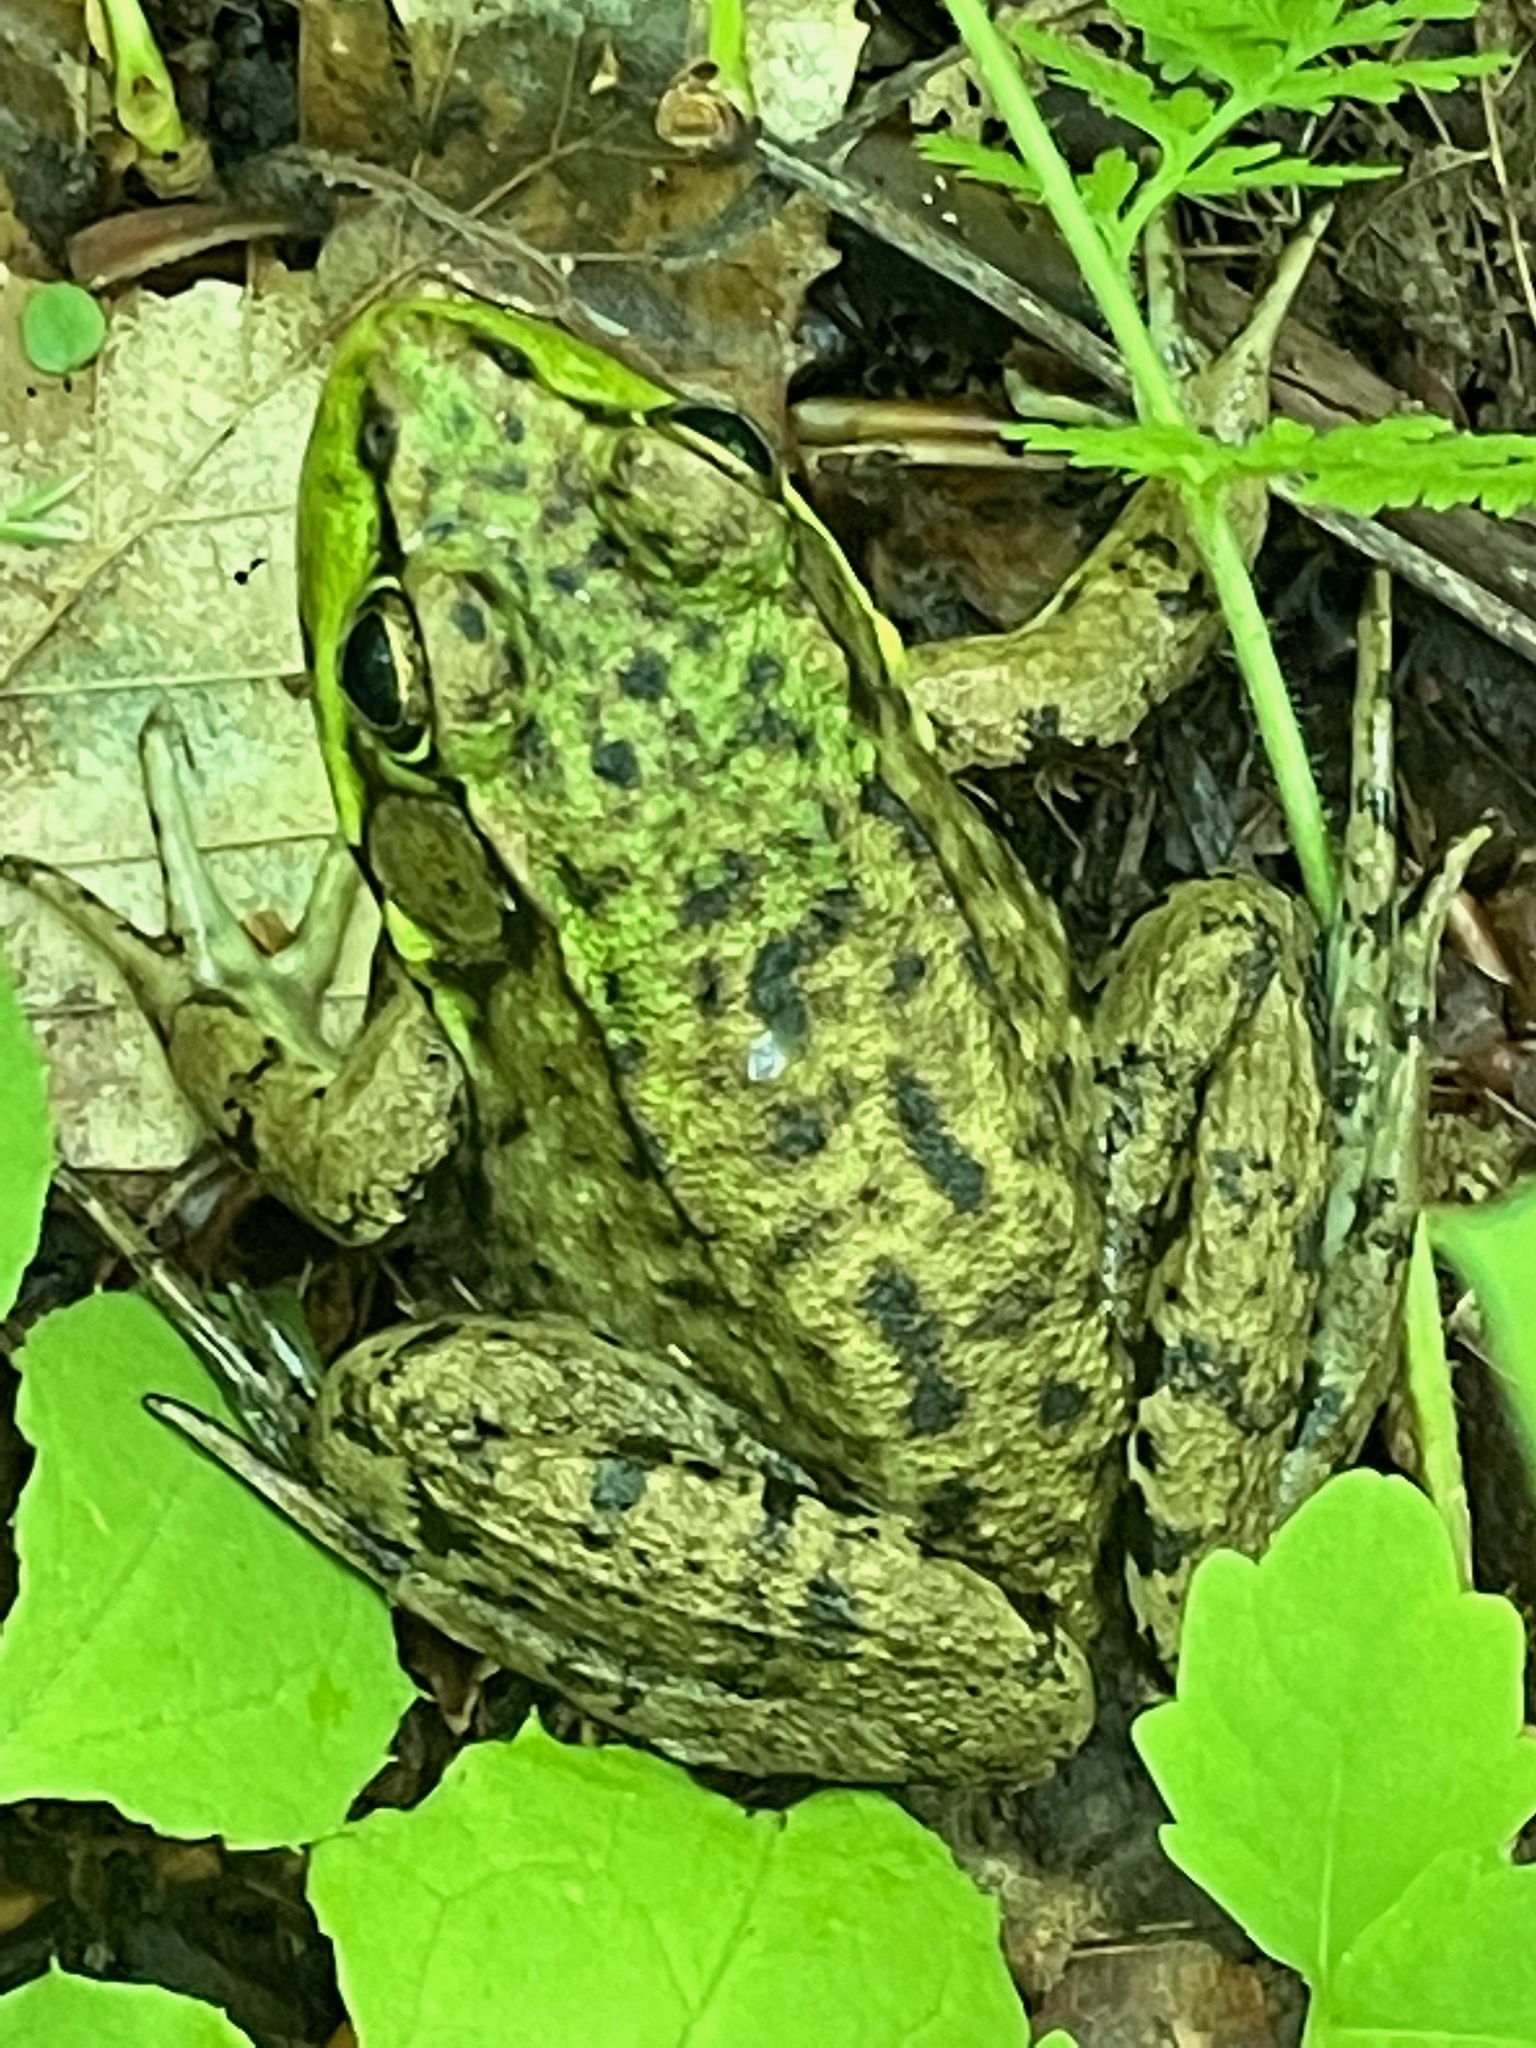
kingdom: Animalia
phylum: Chordata
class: Amphibia
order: Anura
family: Ranidae
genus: Lithobates
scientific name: Lithobates clamitans
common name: Green frog
